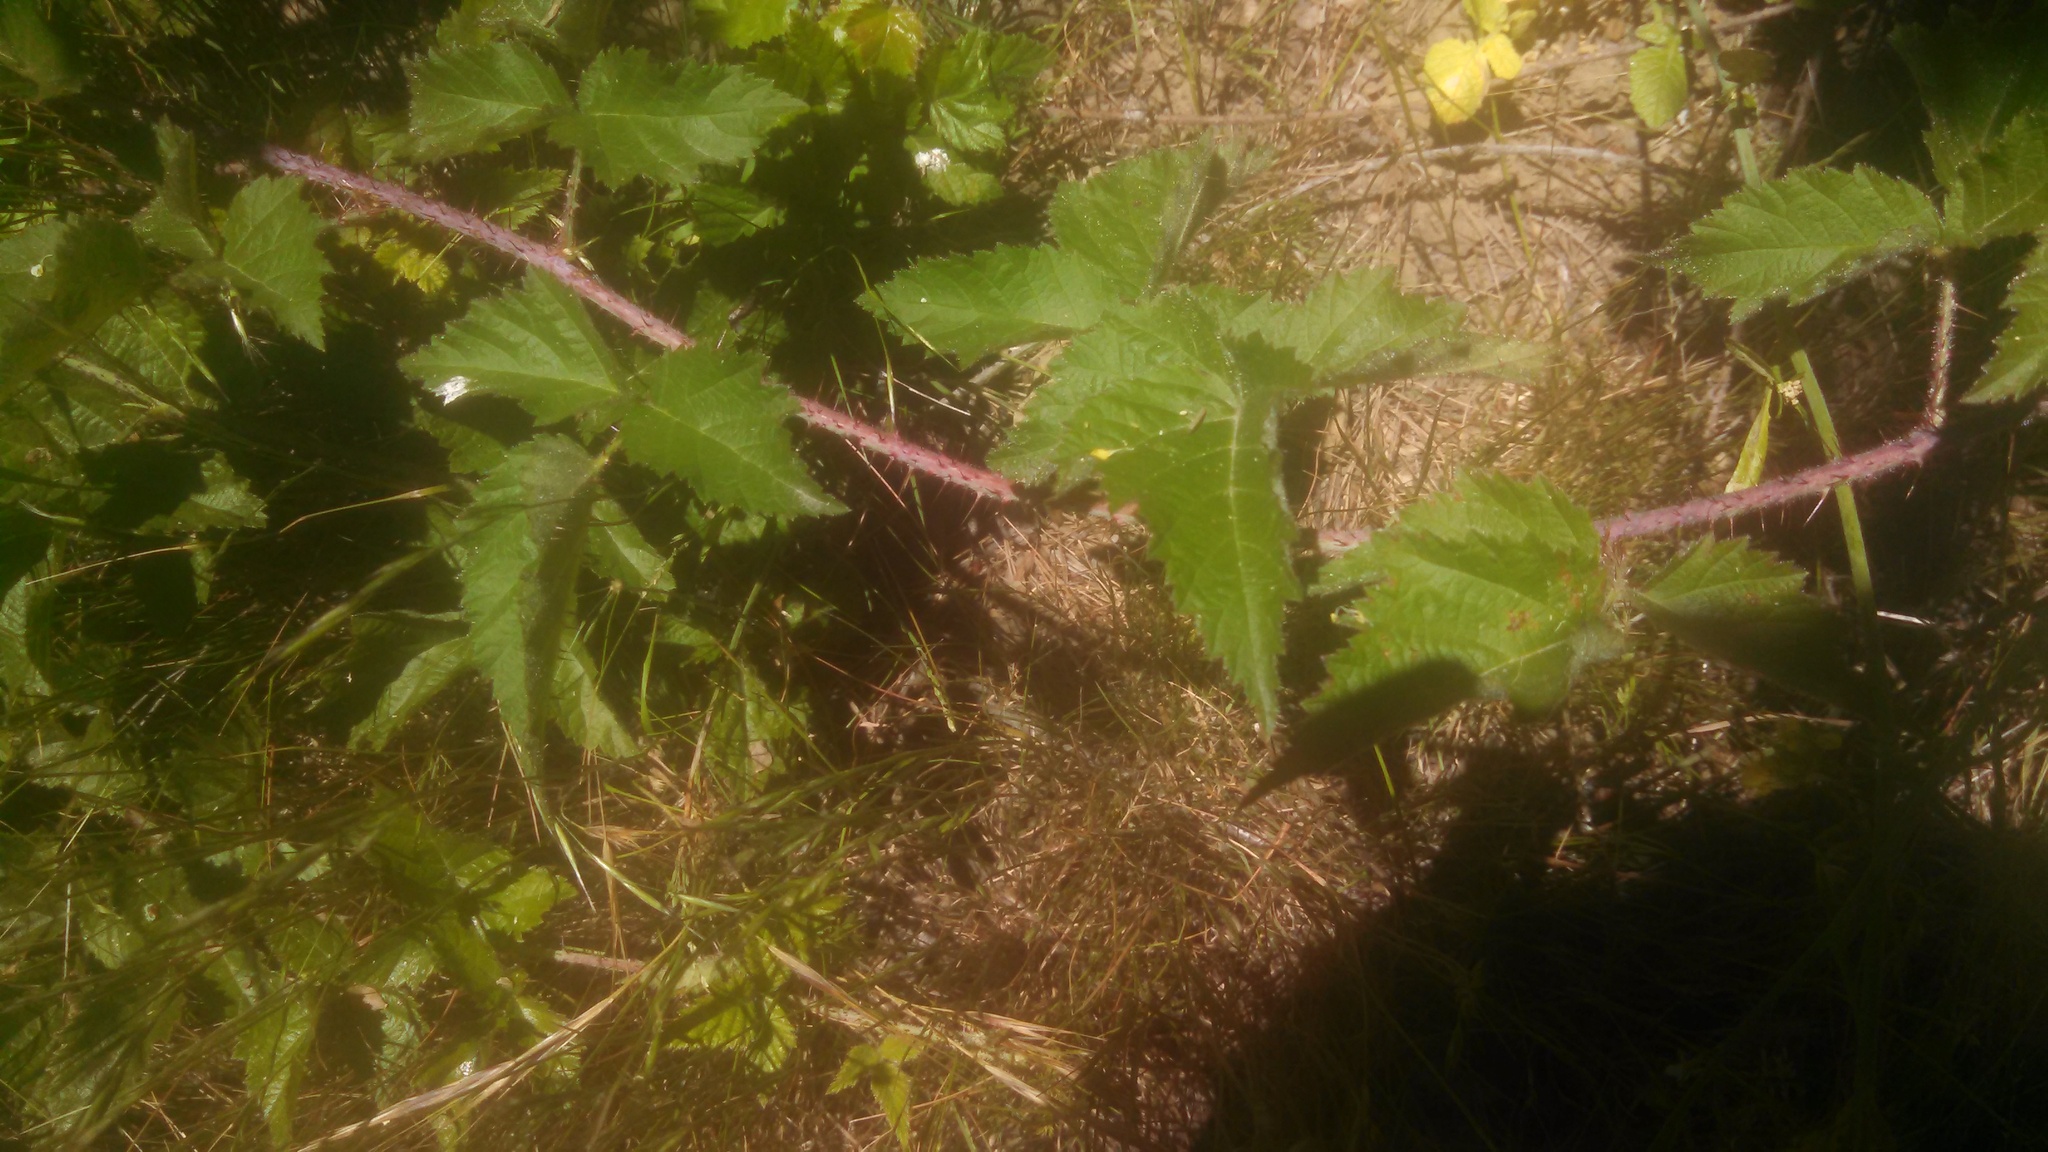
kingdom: Plantae
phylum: Tracheophyta
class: Magnoliopsida
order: Rosales
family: Rosaceae
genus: Rubus
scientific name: Rubus ursinus
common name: Pacific blackberry
